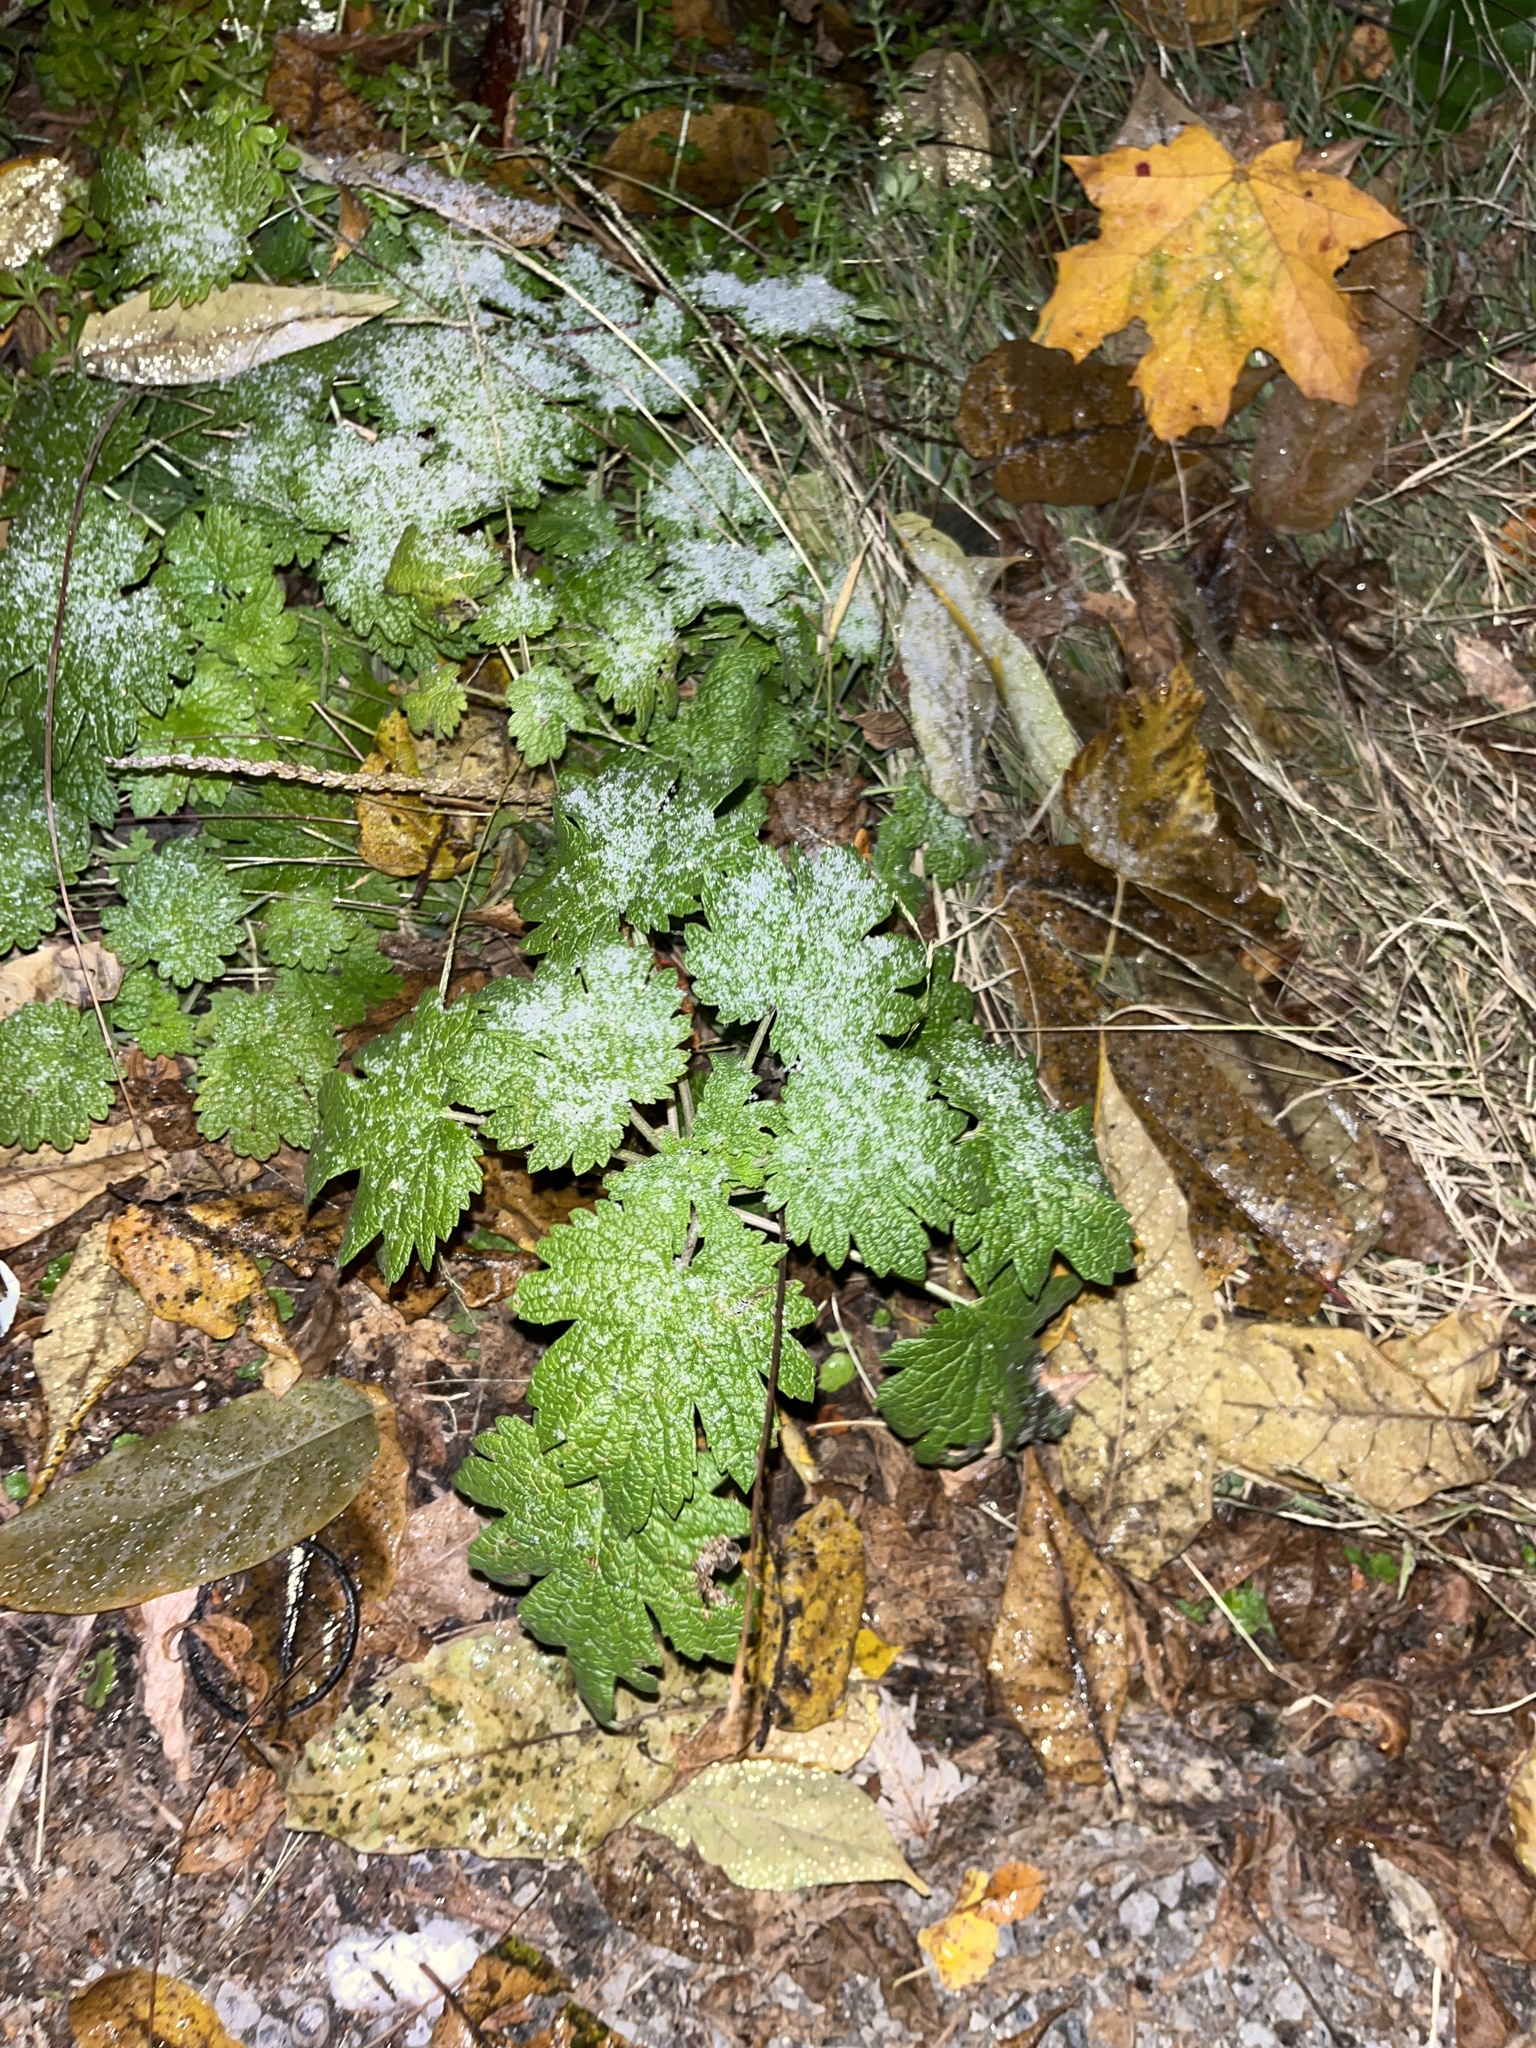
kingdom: Plantae
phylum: Tracheophyta
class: Magnoliopsida
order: Lamiales
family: Lamiaceae
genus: Leonurus
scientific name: Leonurus cardiaca
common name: Motherwort
